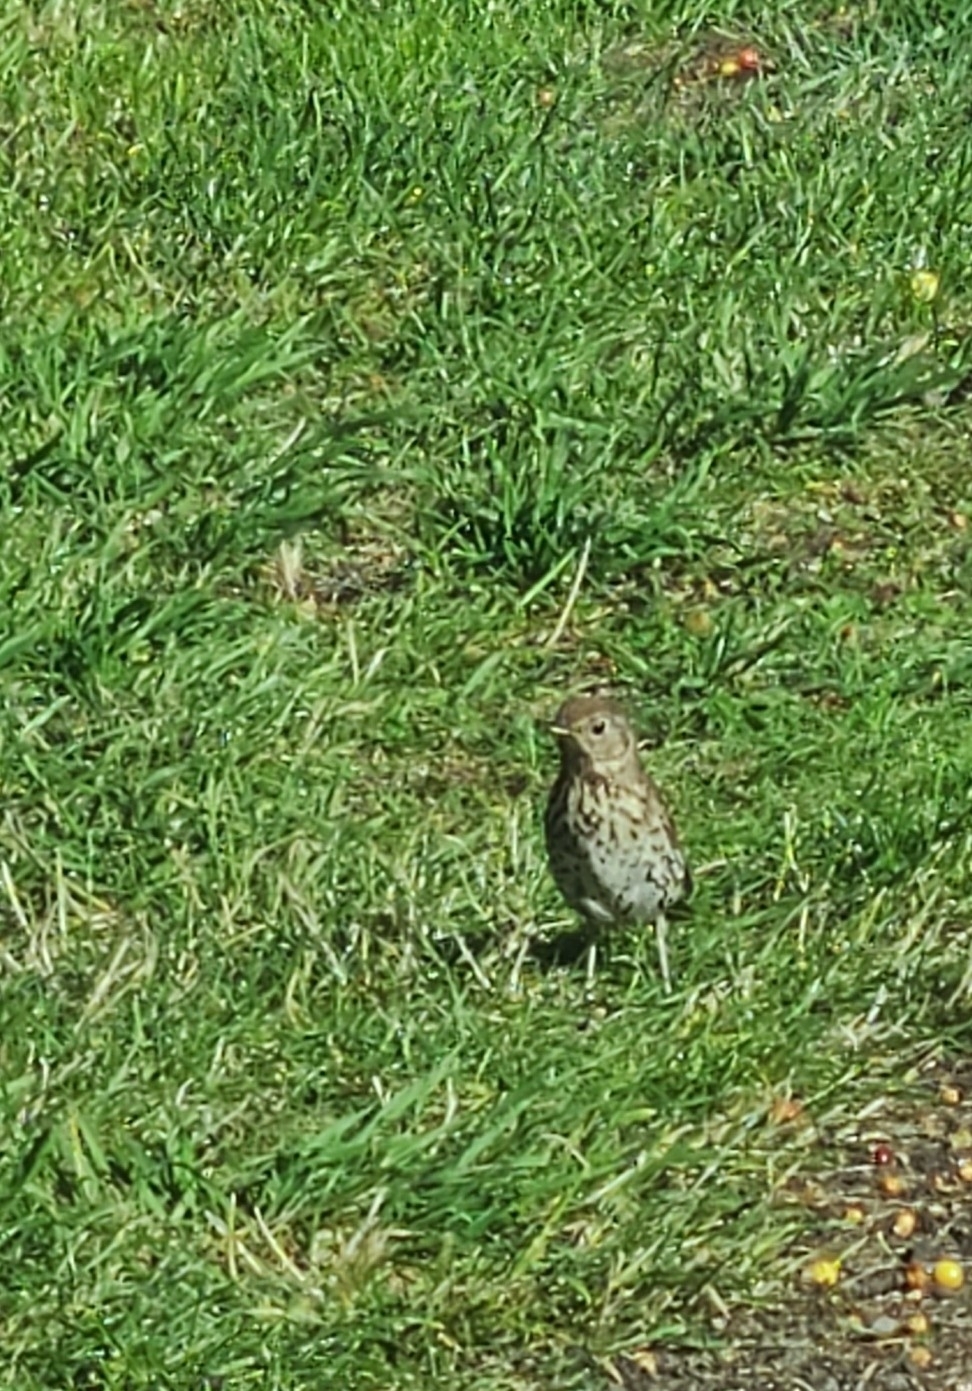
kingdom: Animalia
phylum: Chordata
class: Aves
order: Passeriformes
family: Turdidae
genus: Turdus
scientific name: Turdus philomelos
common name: Song thrush
